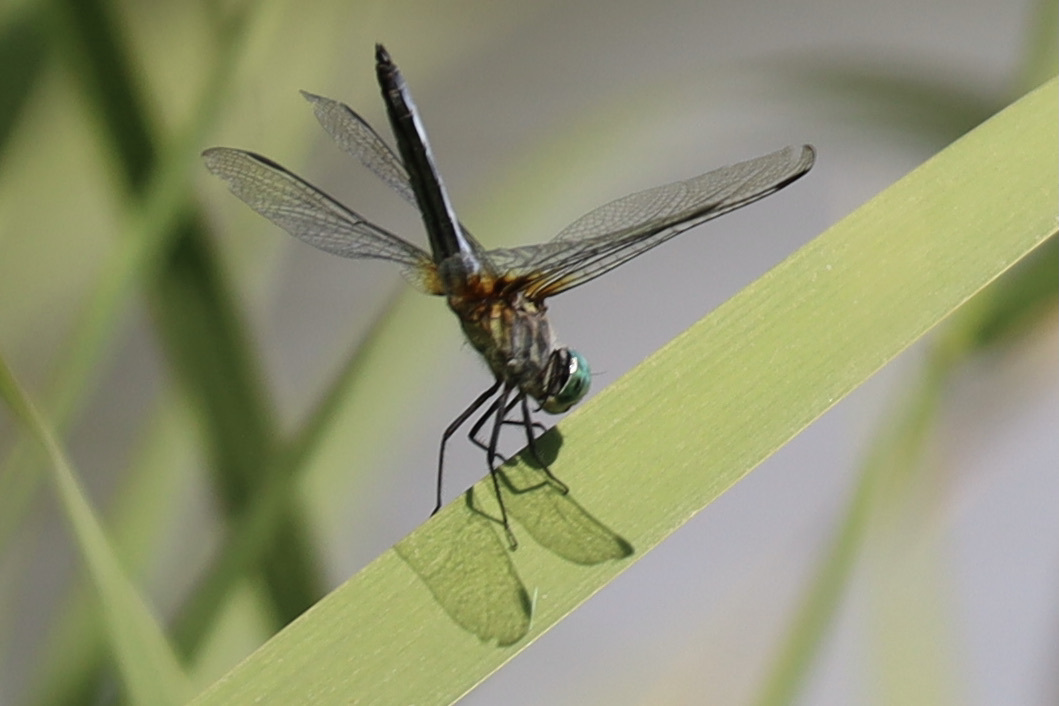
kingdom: Animalia
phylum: Arthropoda
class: Insecta
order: Odonata
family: Libellulidae
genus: Pachydiplax
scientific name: Pachydiplax longipennis
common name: Blue dasher
